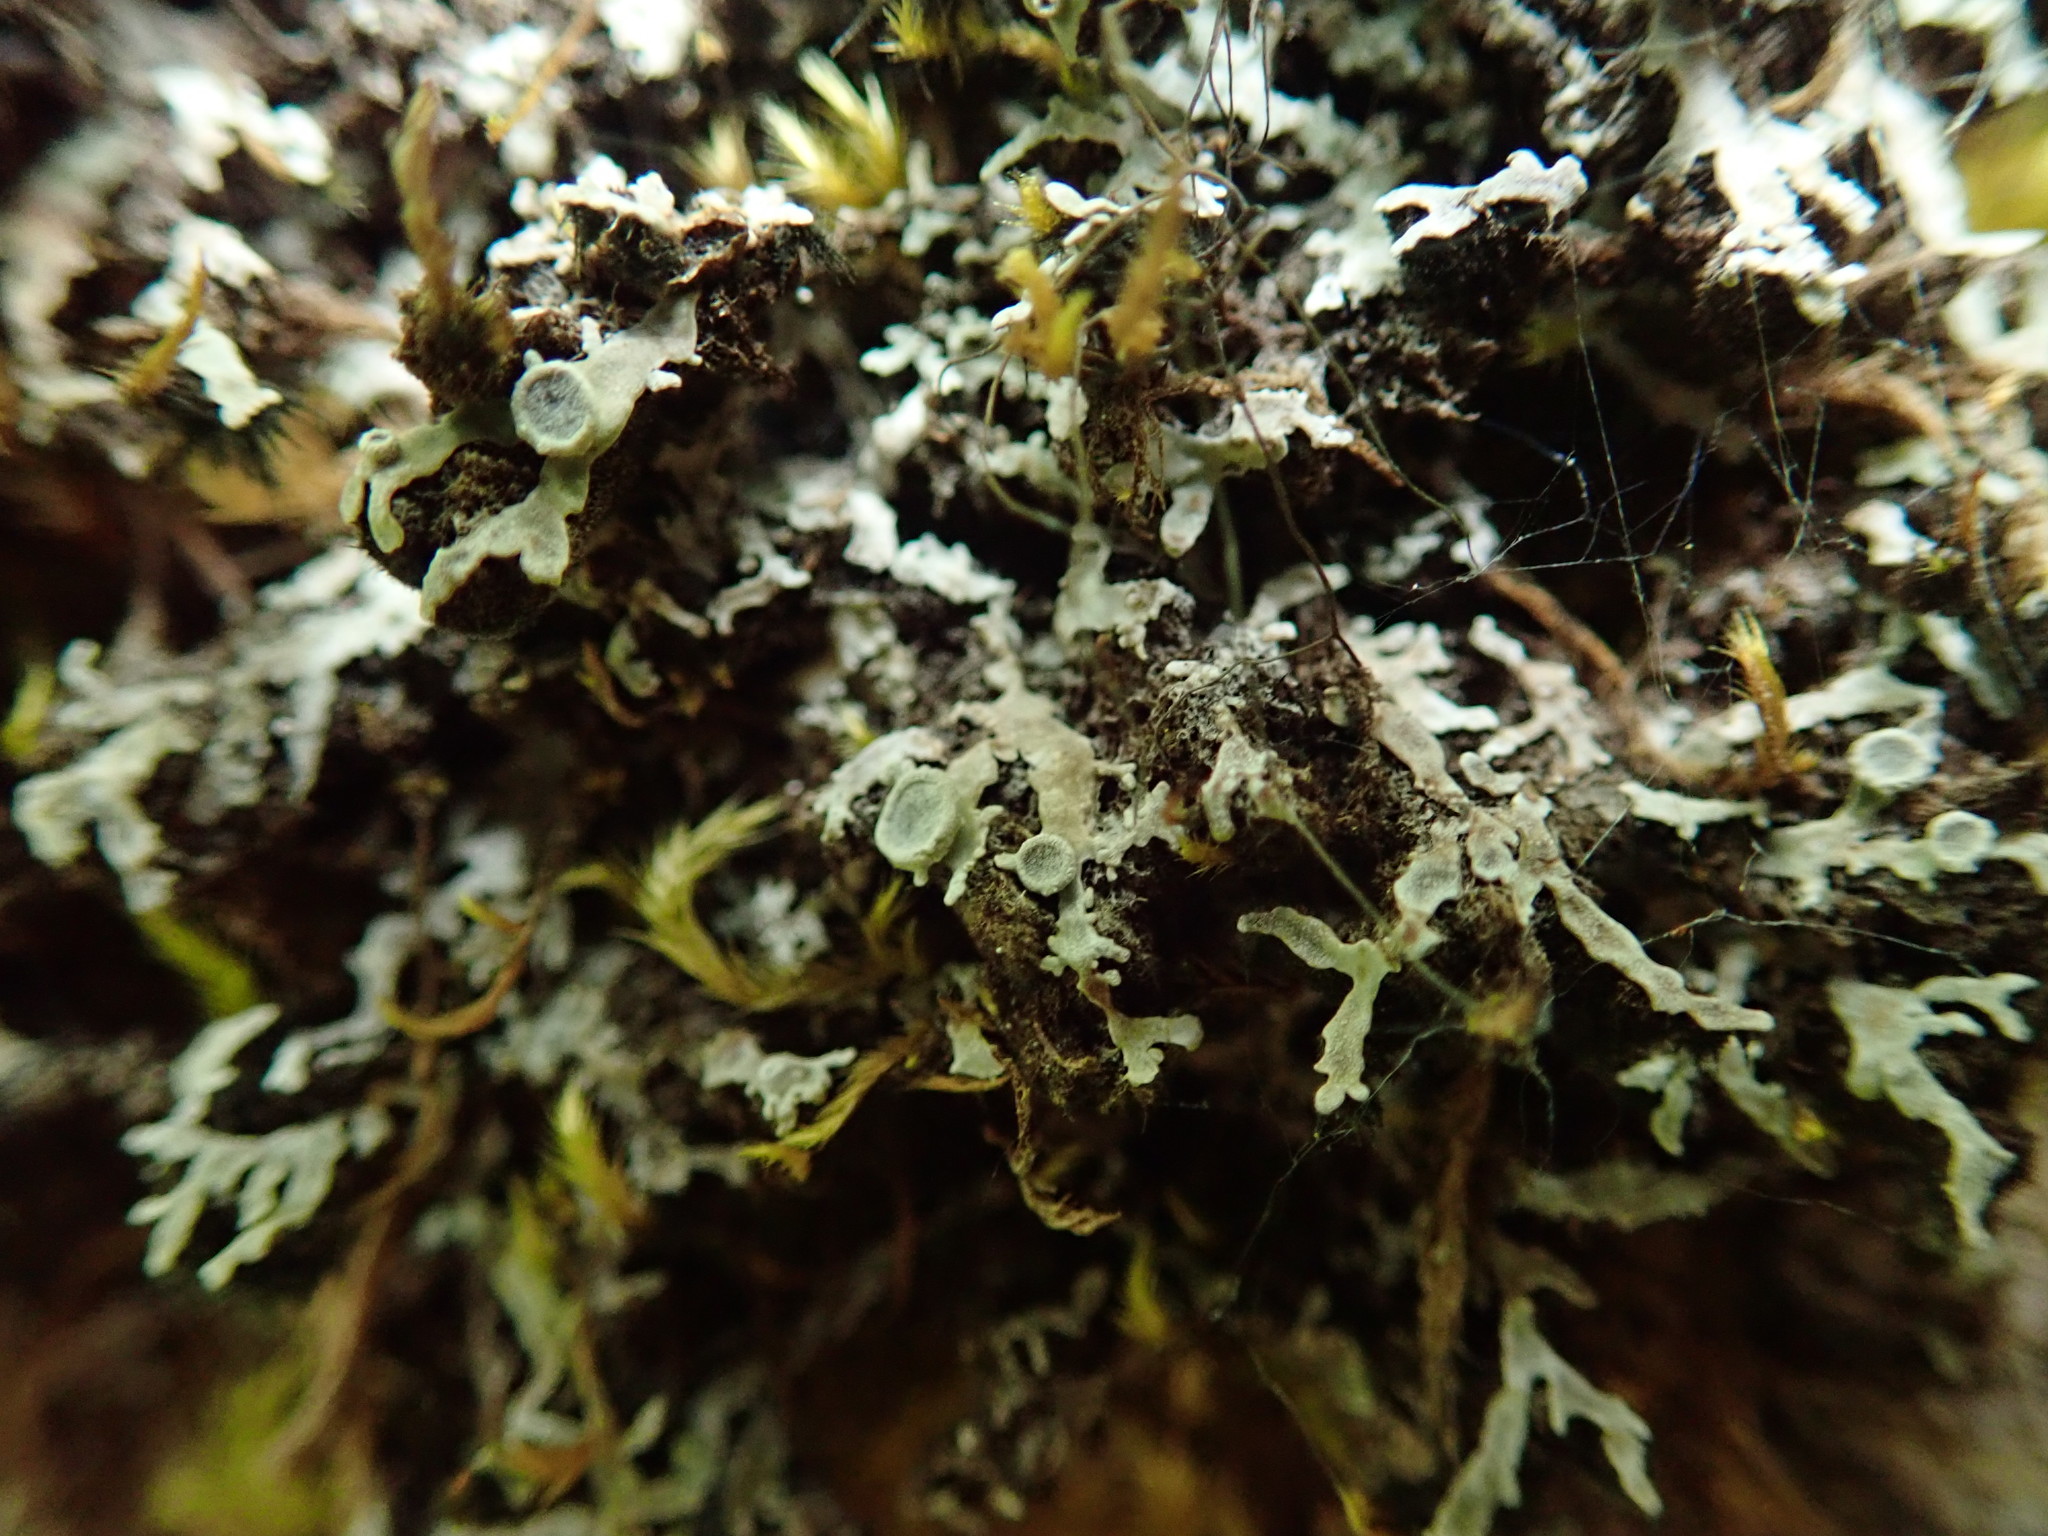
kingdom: Fungi
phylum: Ascomycota
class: Lecanoromycetes
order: Caliciales
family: Physciaceae
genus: Physconia
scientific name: Physconia americana
